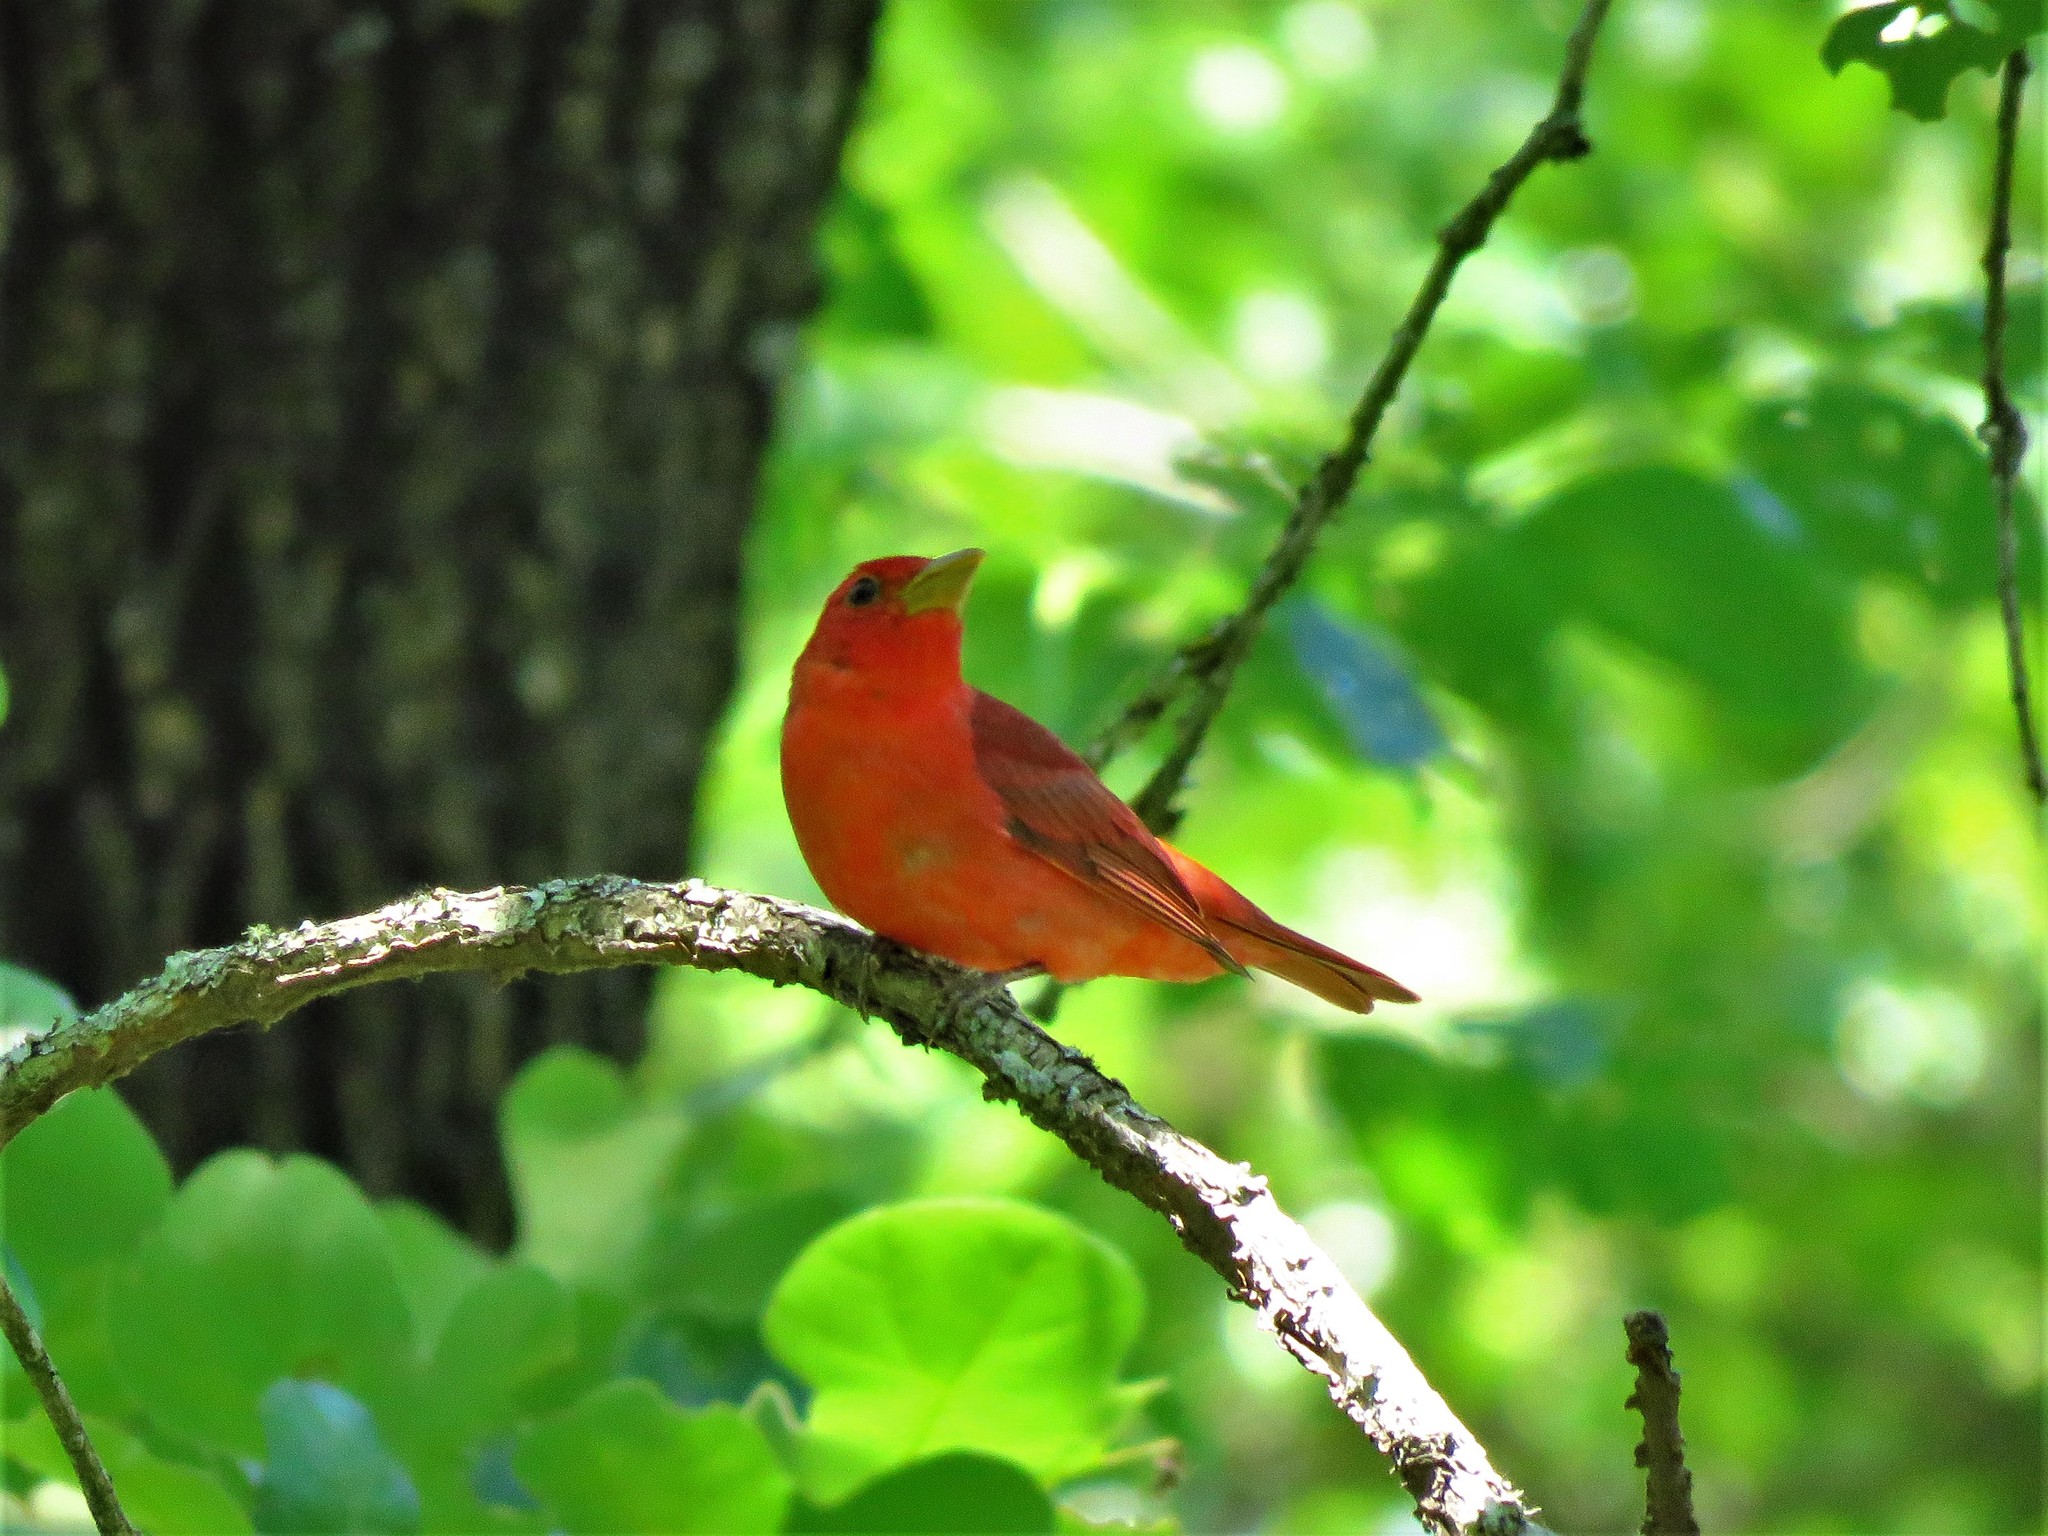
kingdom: Animalia
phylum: Chordata
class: Aves
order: Passeriformes
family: Cardinalidae
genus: Piranga
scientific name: Piranga rubra
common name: Summer tanager
